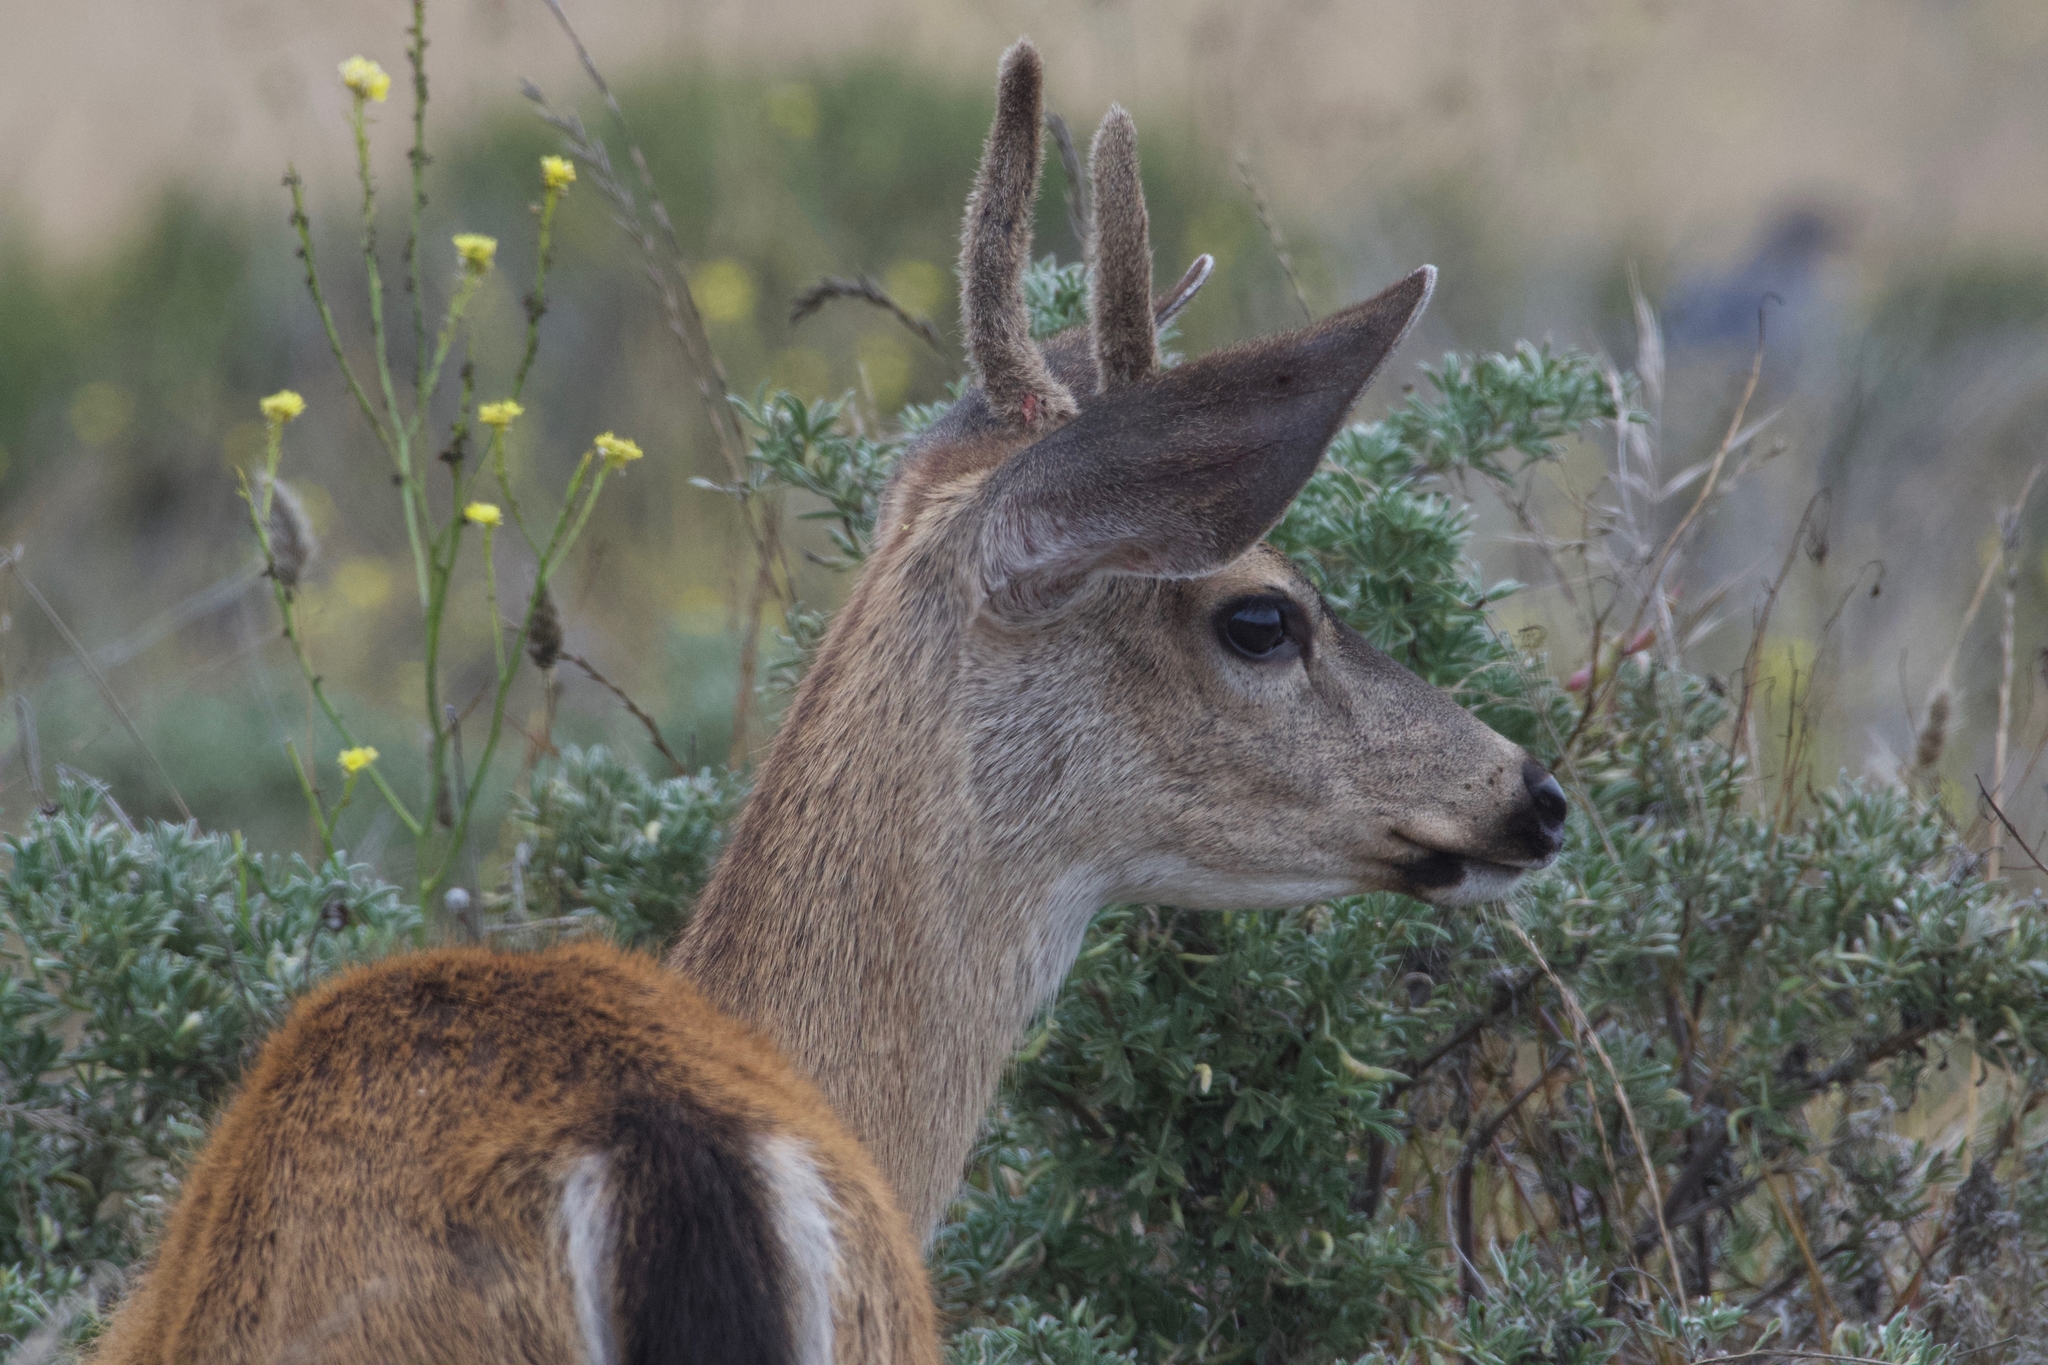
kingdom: Animalia
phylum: Chordata
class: Mammalia
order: Artiodactyla
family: Cervidae
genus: Odocoileus
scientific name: Odocoileus hemionus
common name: Mule deer
